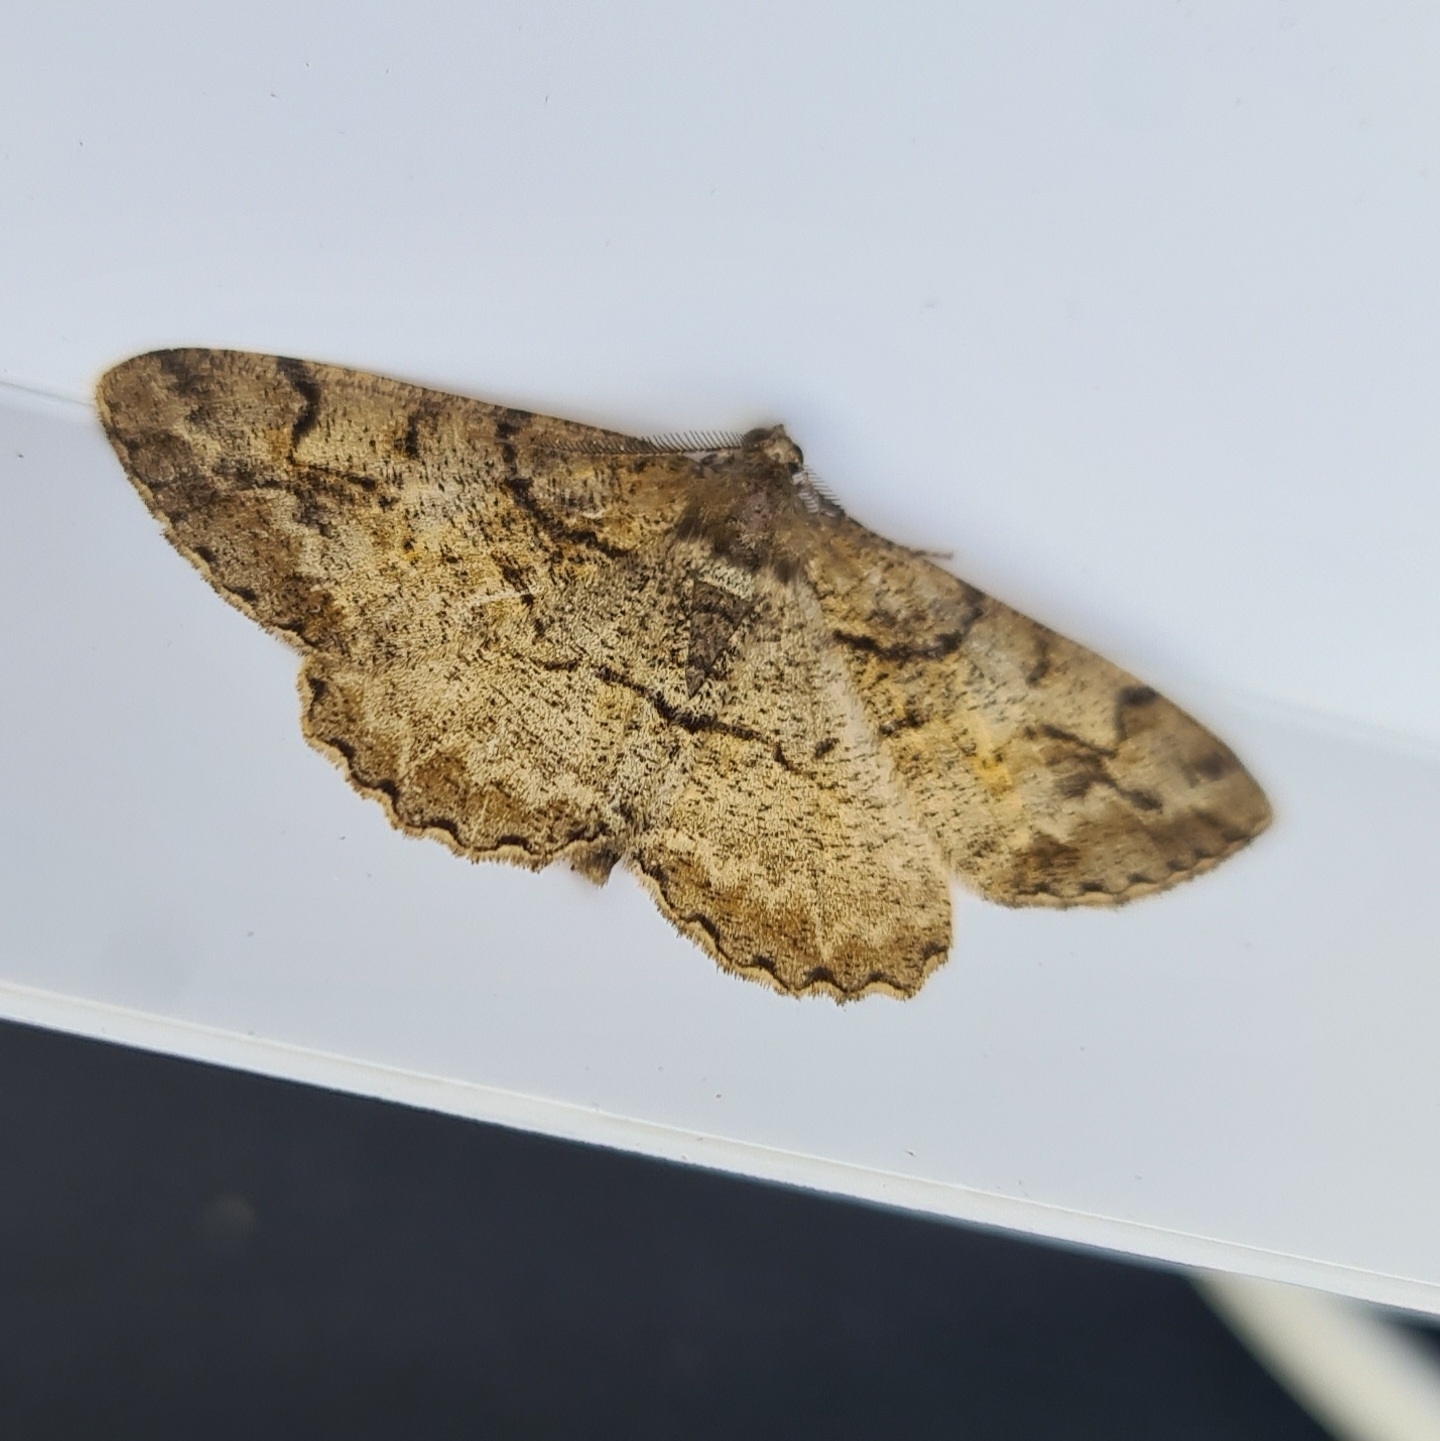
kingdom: Animalia
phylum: Arthropoda
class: Insecta
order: Lepidoptera
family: Geometridae
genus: Alcis
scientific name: Alcis repandata
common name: Mottled beauty
